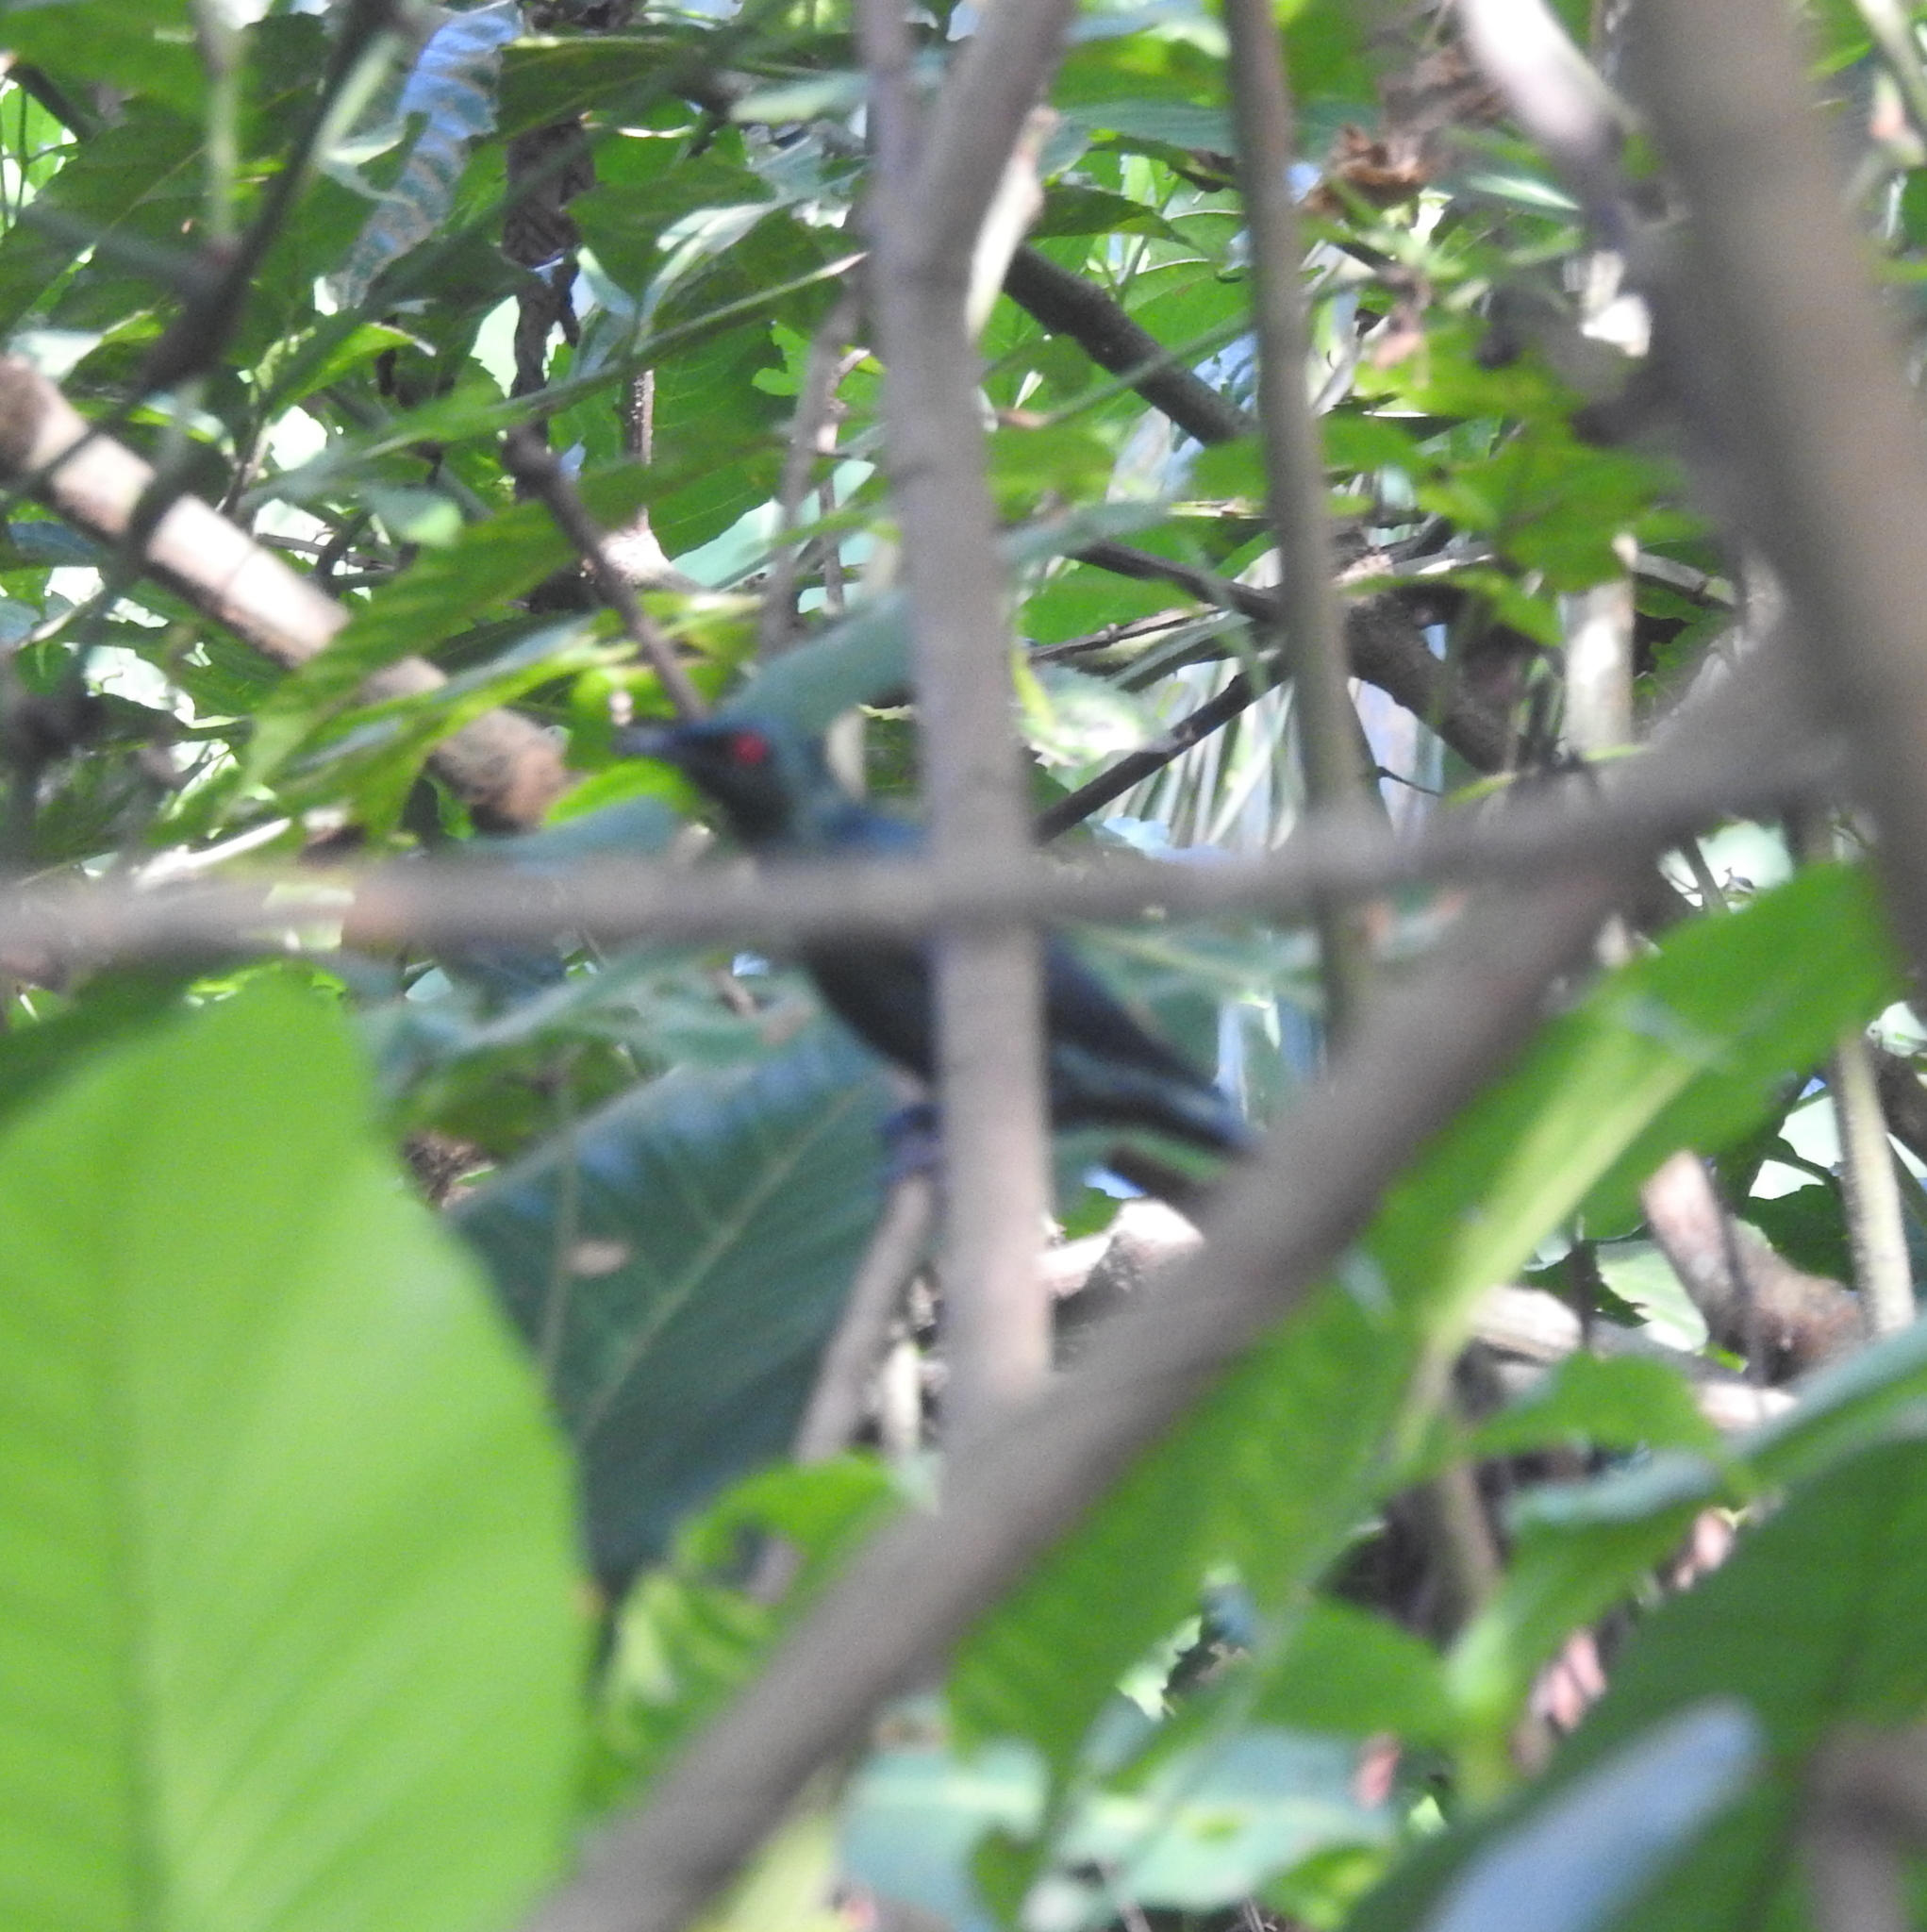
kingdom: Animalia
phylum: Chordata
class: Aves
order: Passeriformes
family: Sturnidae
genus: Aplonis
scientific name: Aplonis panayensis
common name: Asian glossy starling
